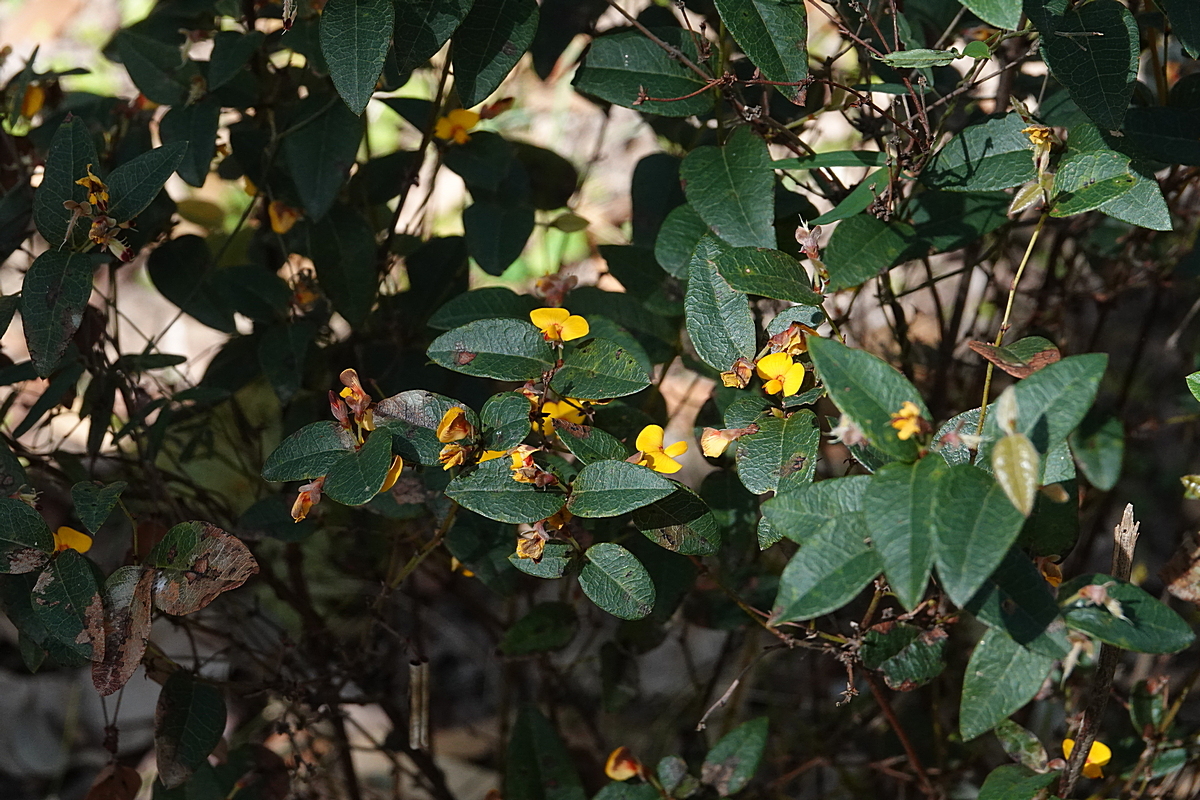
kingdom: Plantae
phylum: Tracheophyta
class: Magnoliopsida
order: Fabales
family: Fabaceae
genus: Platylobium
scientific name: Platylobium parviflorum
